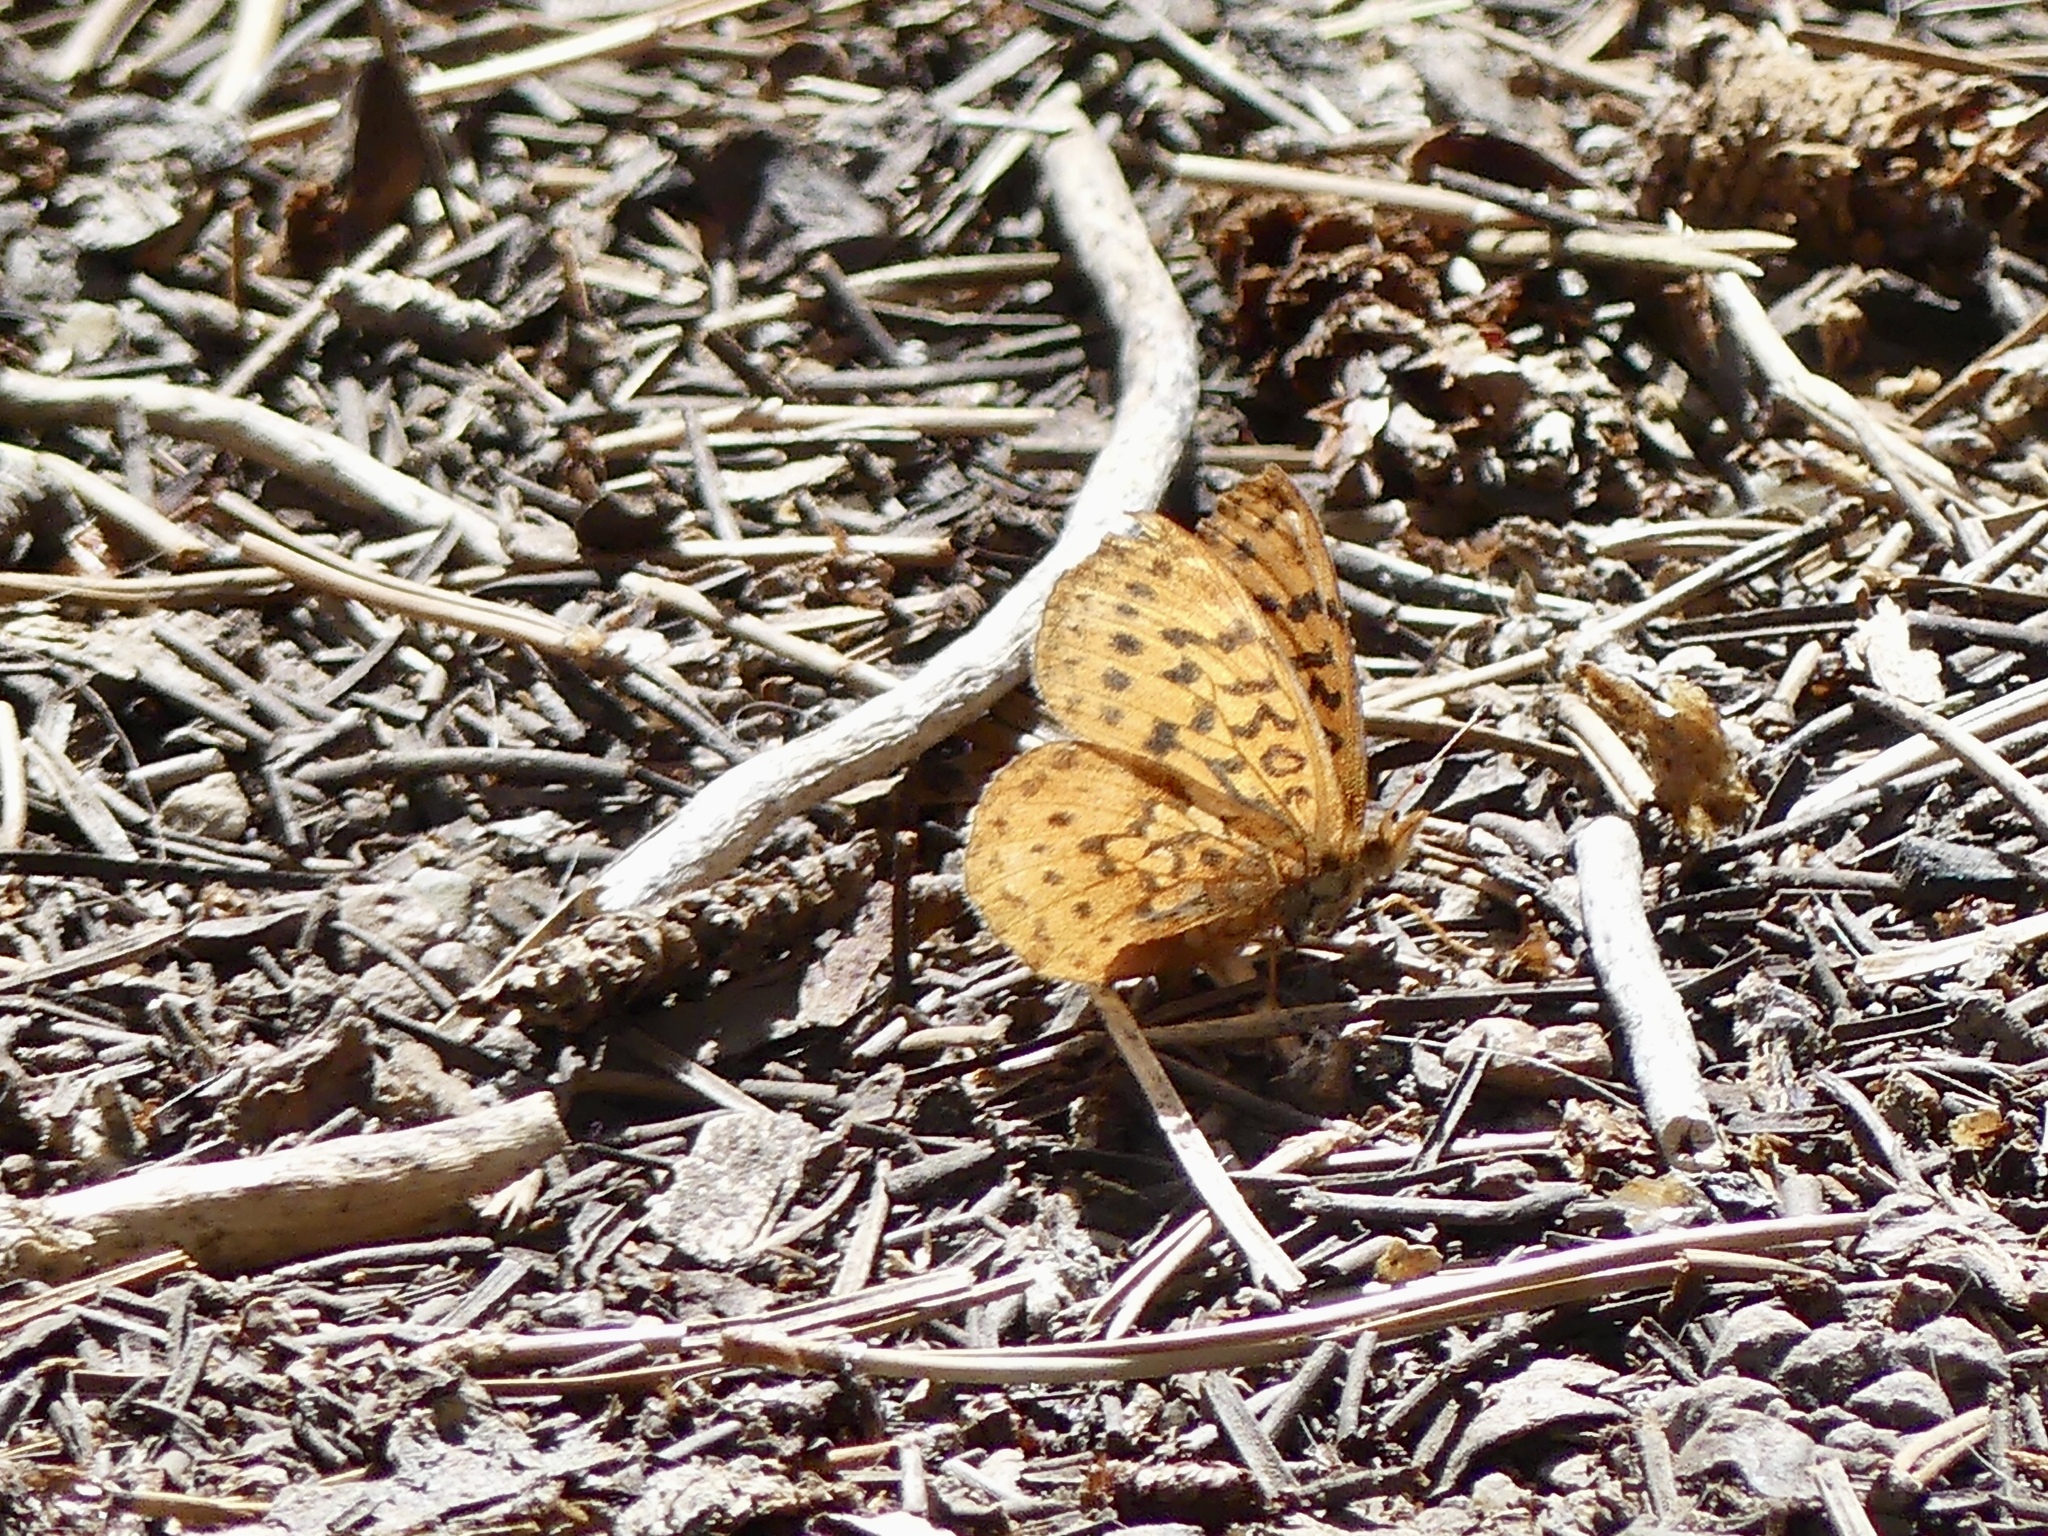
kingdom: Animalia
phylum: Arthropoda
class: Insecta
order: Lepidoptera
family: Nymphalidae
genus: Boloria
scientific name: Boloria epithore
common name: Pacific fritillary
